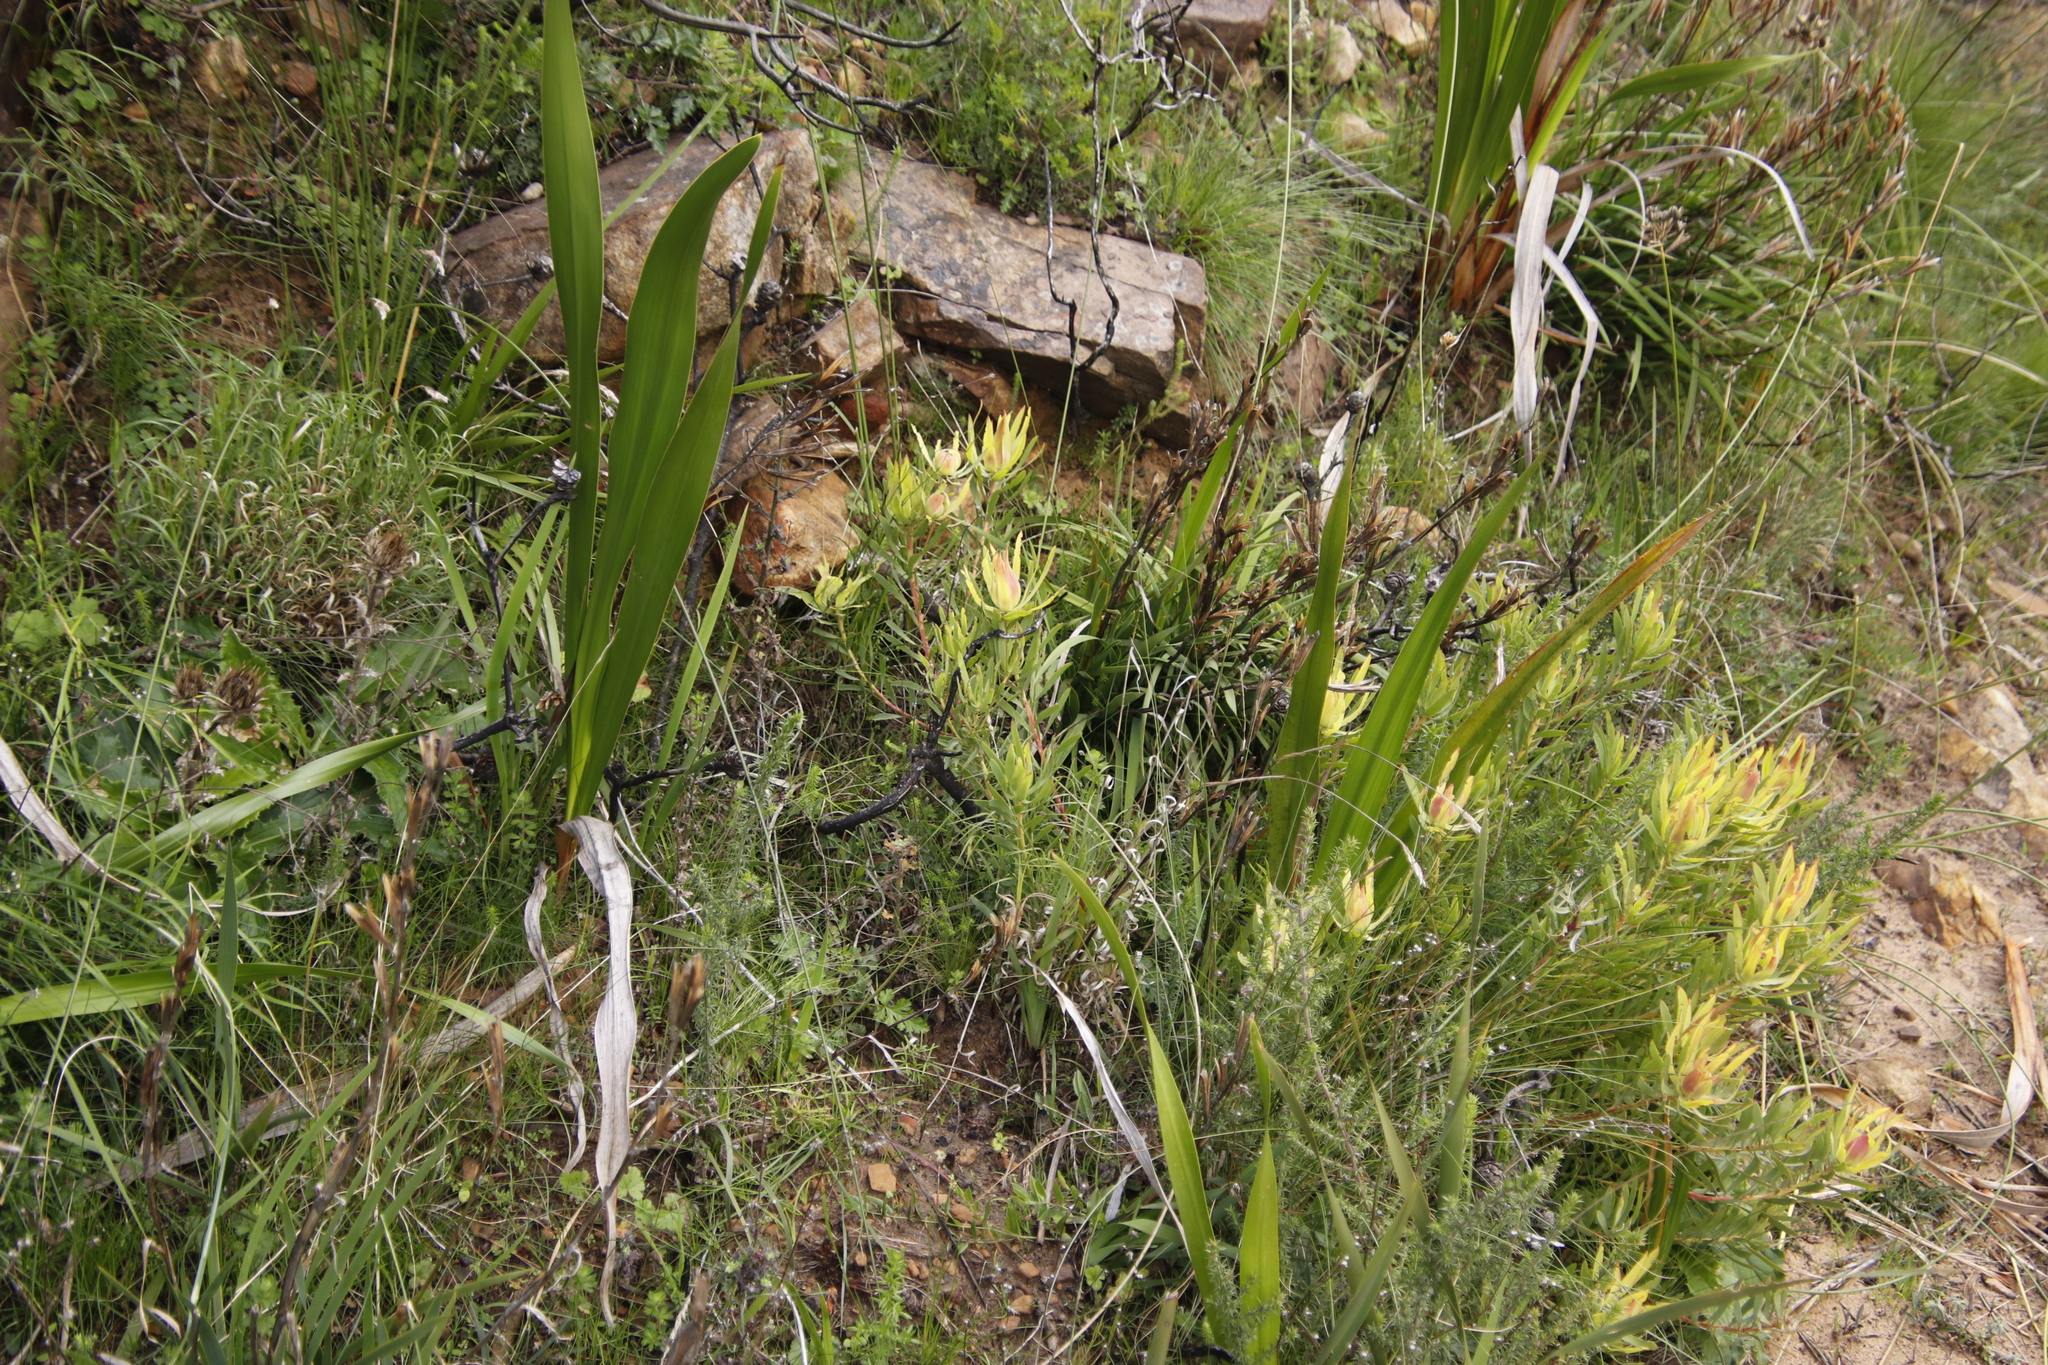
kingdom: Plantae
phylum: Tracheophyta
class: Magnoliopsida
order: Proteales
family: Proteaceae
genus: Leucadendron
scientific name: Leucadendron salignum
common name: Common sunshine conebush
